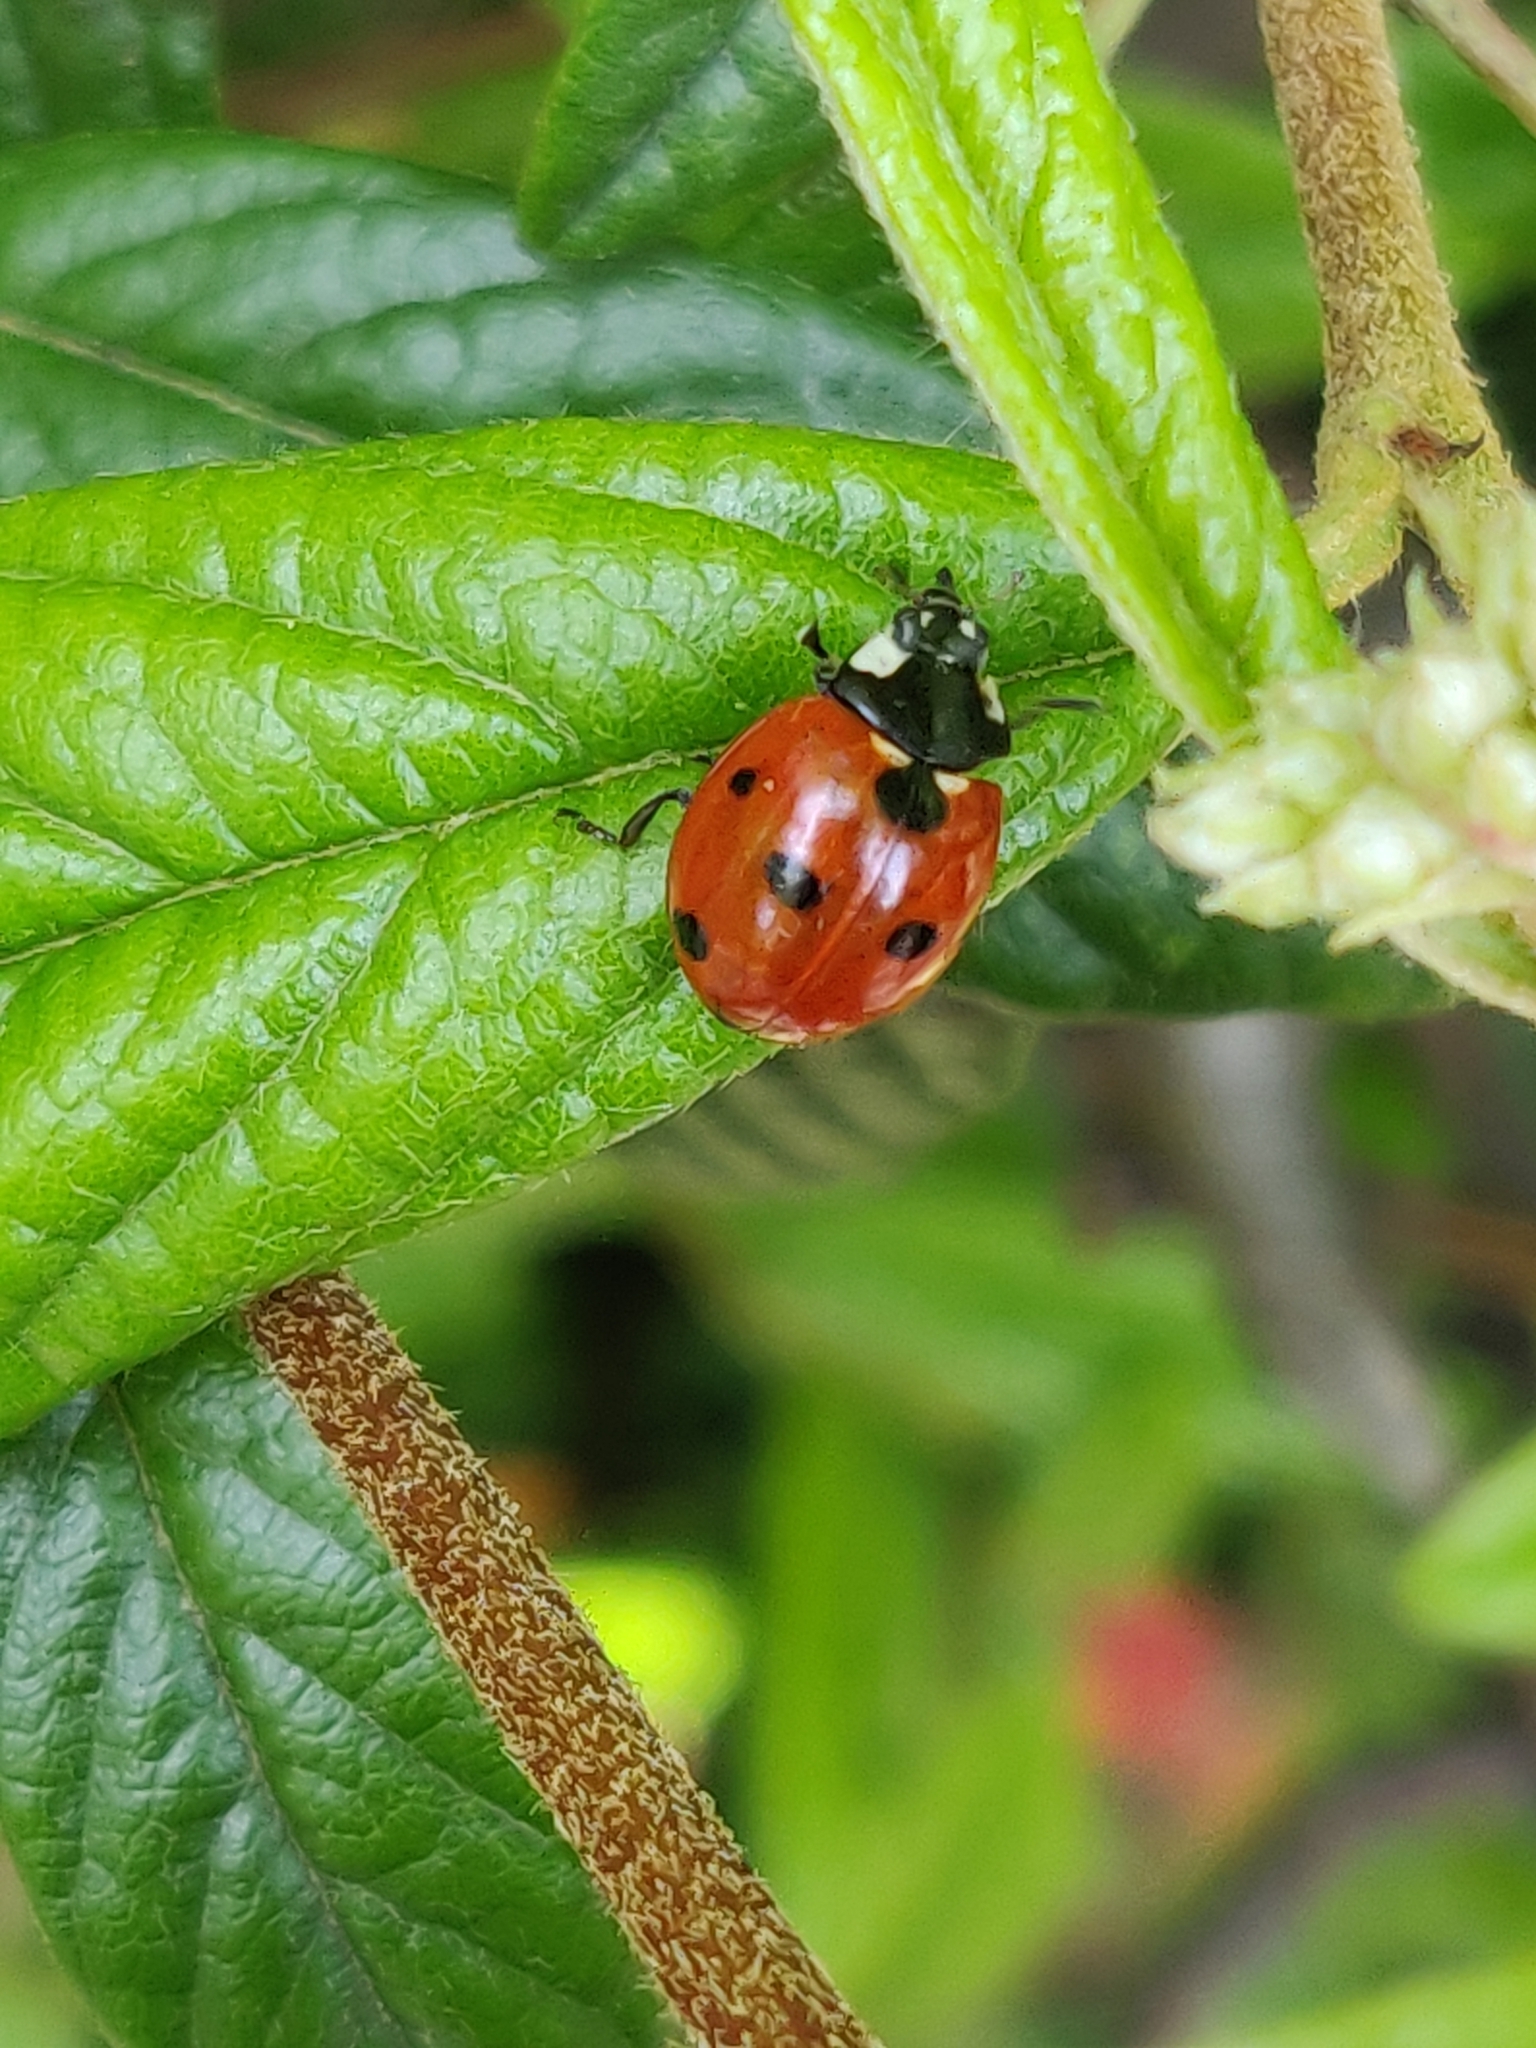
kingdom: Animalia
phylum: Arthropoda
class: Insecta
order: Coleoptera
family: Coccinellidae
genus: Coccinella
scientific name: Coccinella septempunctata
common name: Sevenspotted lady beetle
